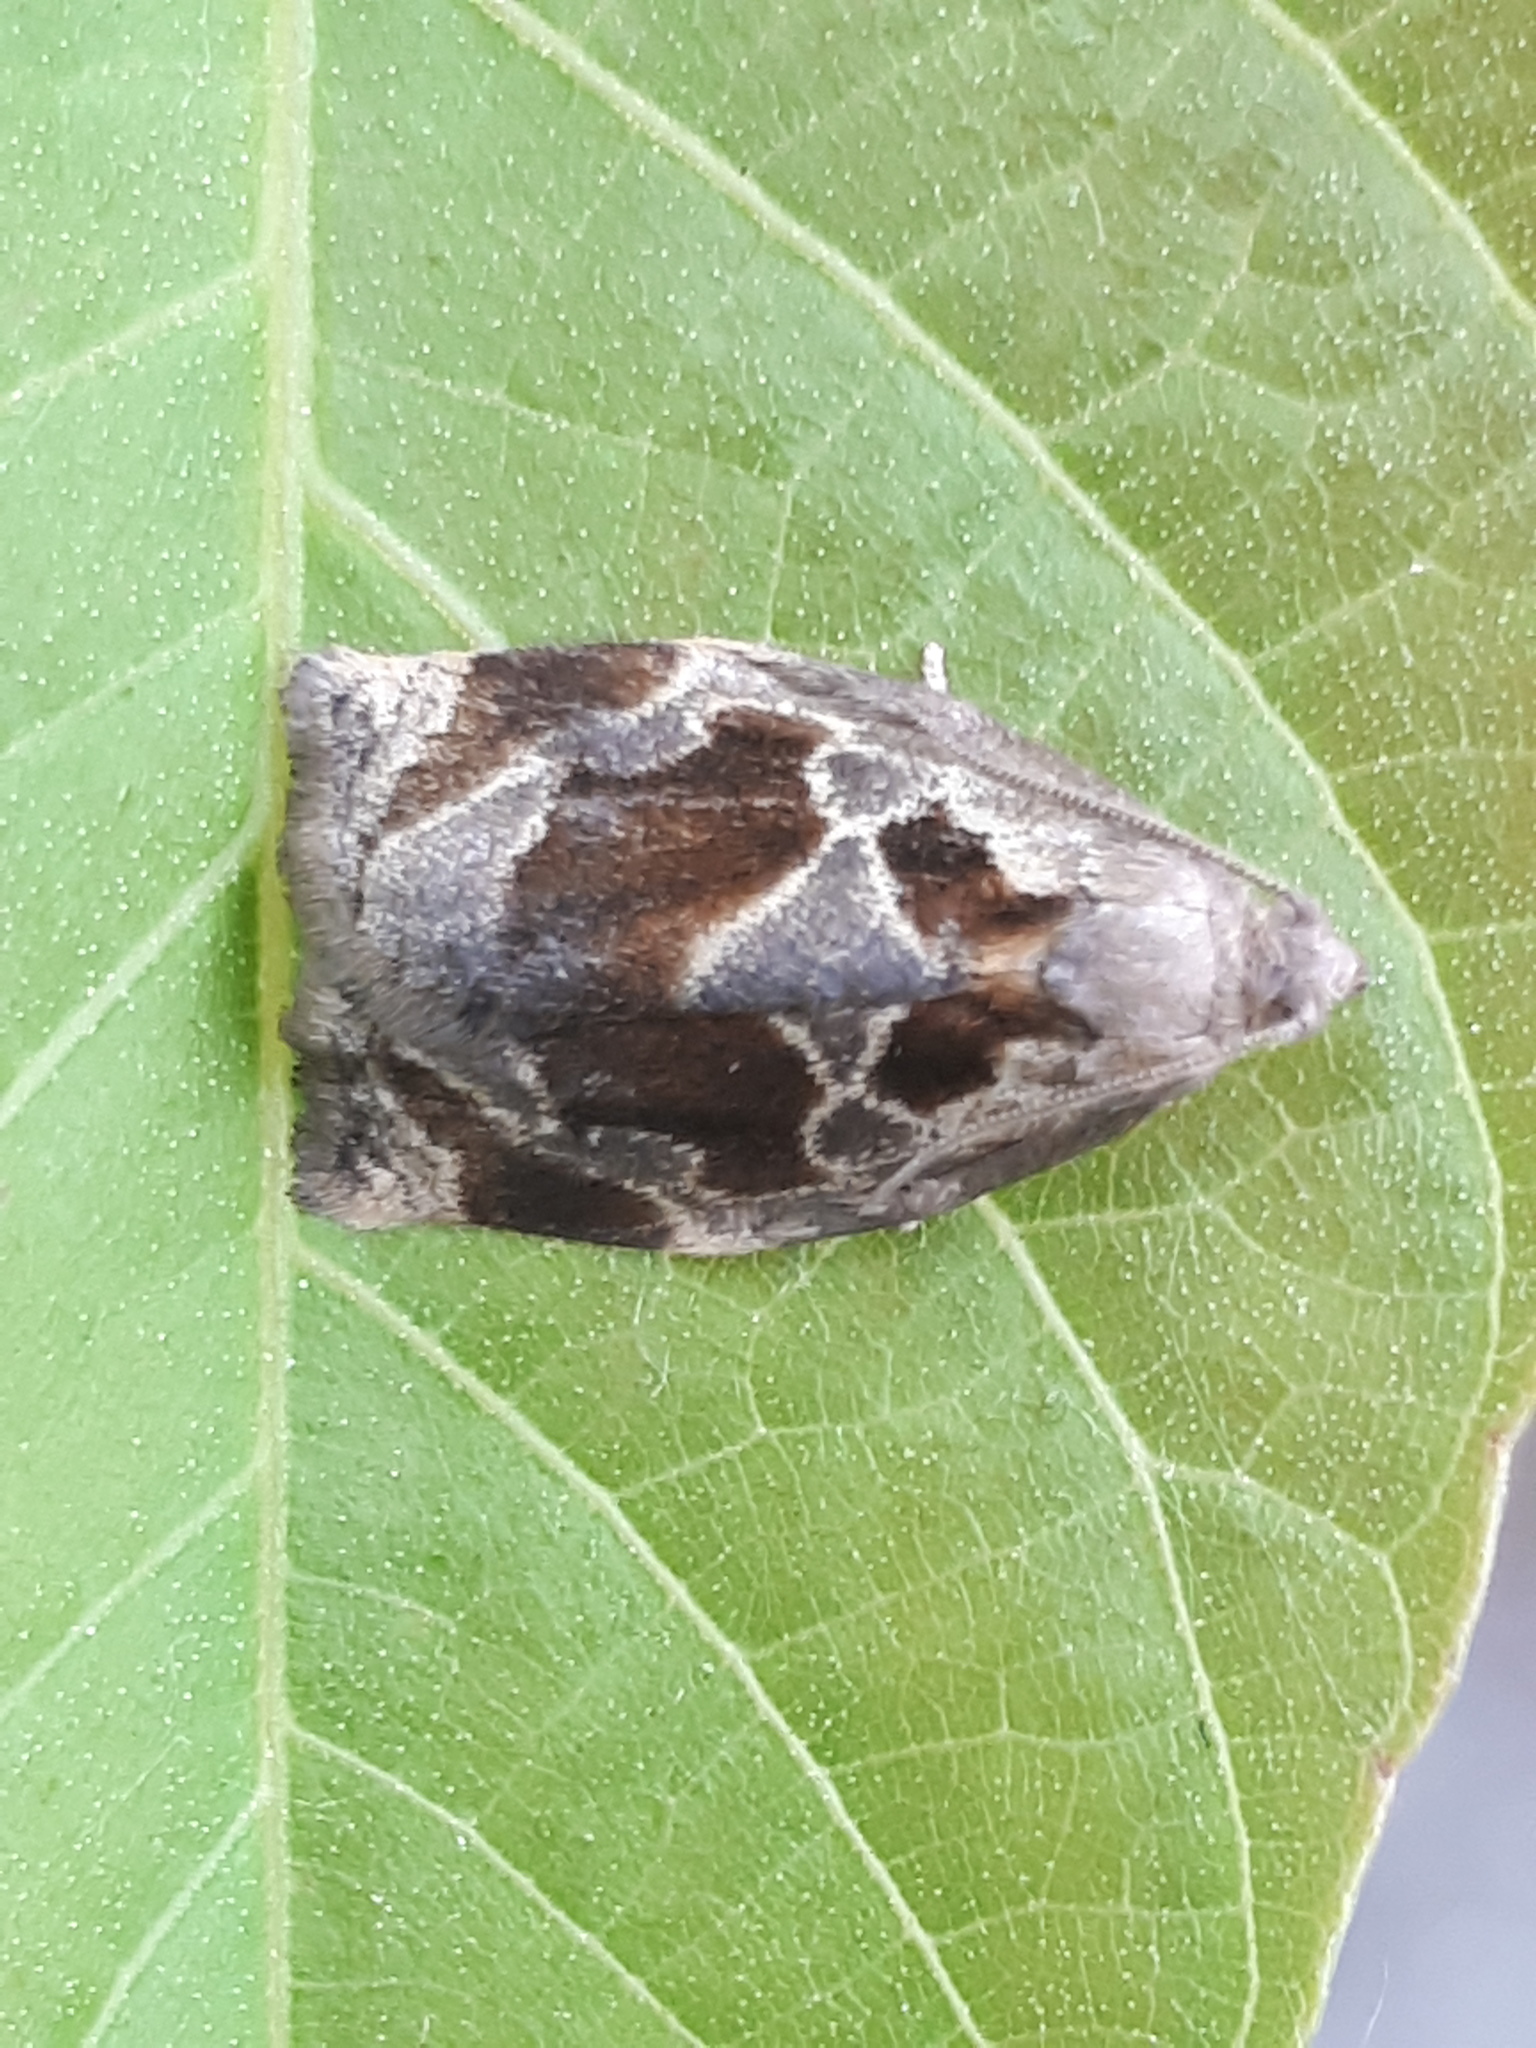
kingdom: Animalia
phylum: Arthropoda
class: Insecta
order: Lepidoptera
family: Tortricidae
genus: Archips
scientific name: Archips crataegana
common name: Brown oak tortrix
